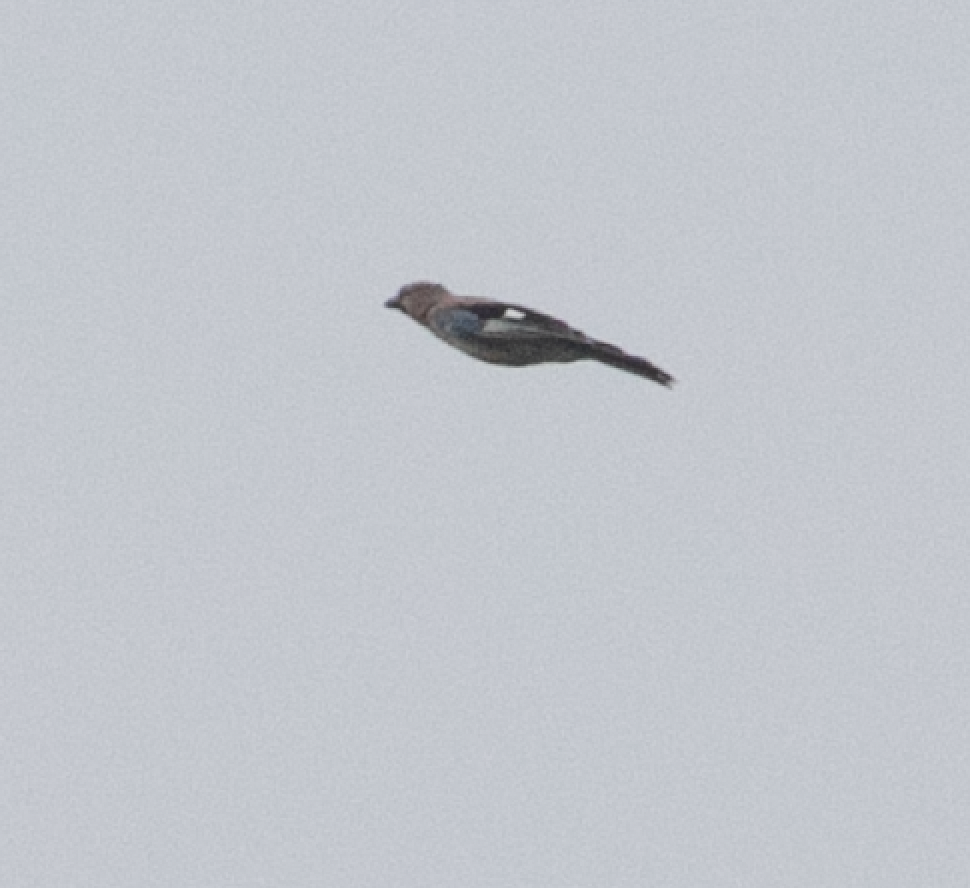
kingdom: Animalia
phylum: Chordata
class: Aves
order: Passeriformes
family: Corvidae
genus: Garrulus
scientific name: Garrulus glandarius
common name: Eurasian jay
